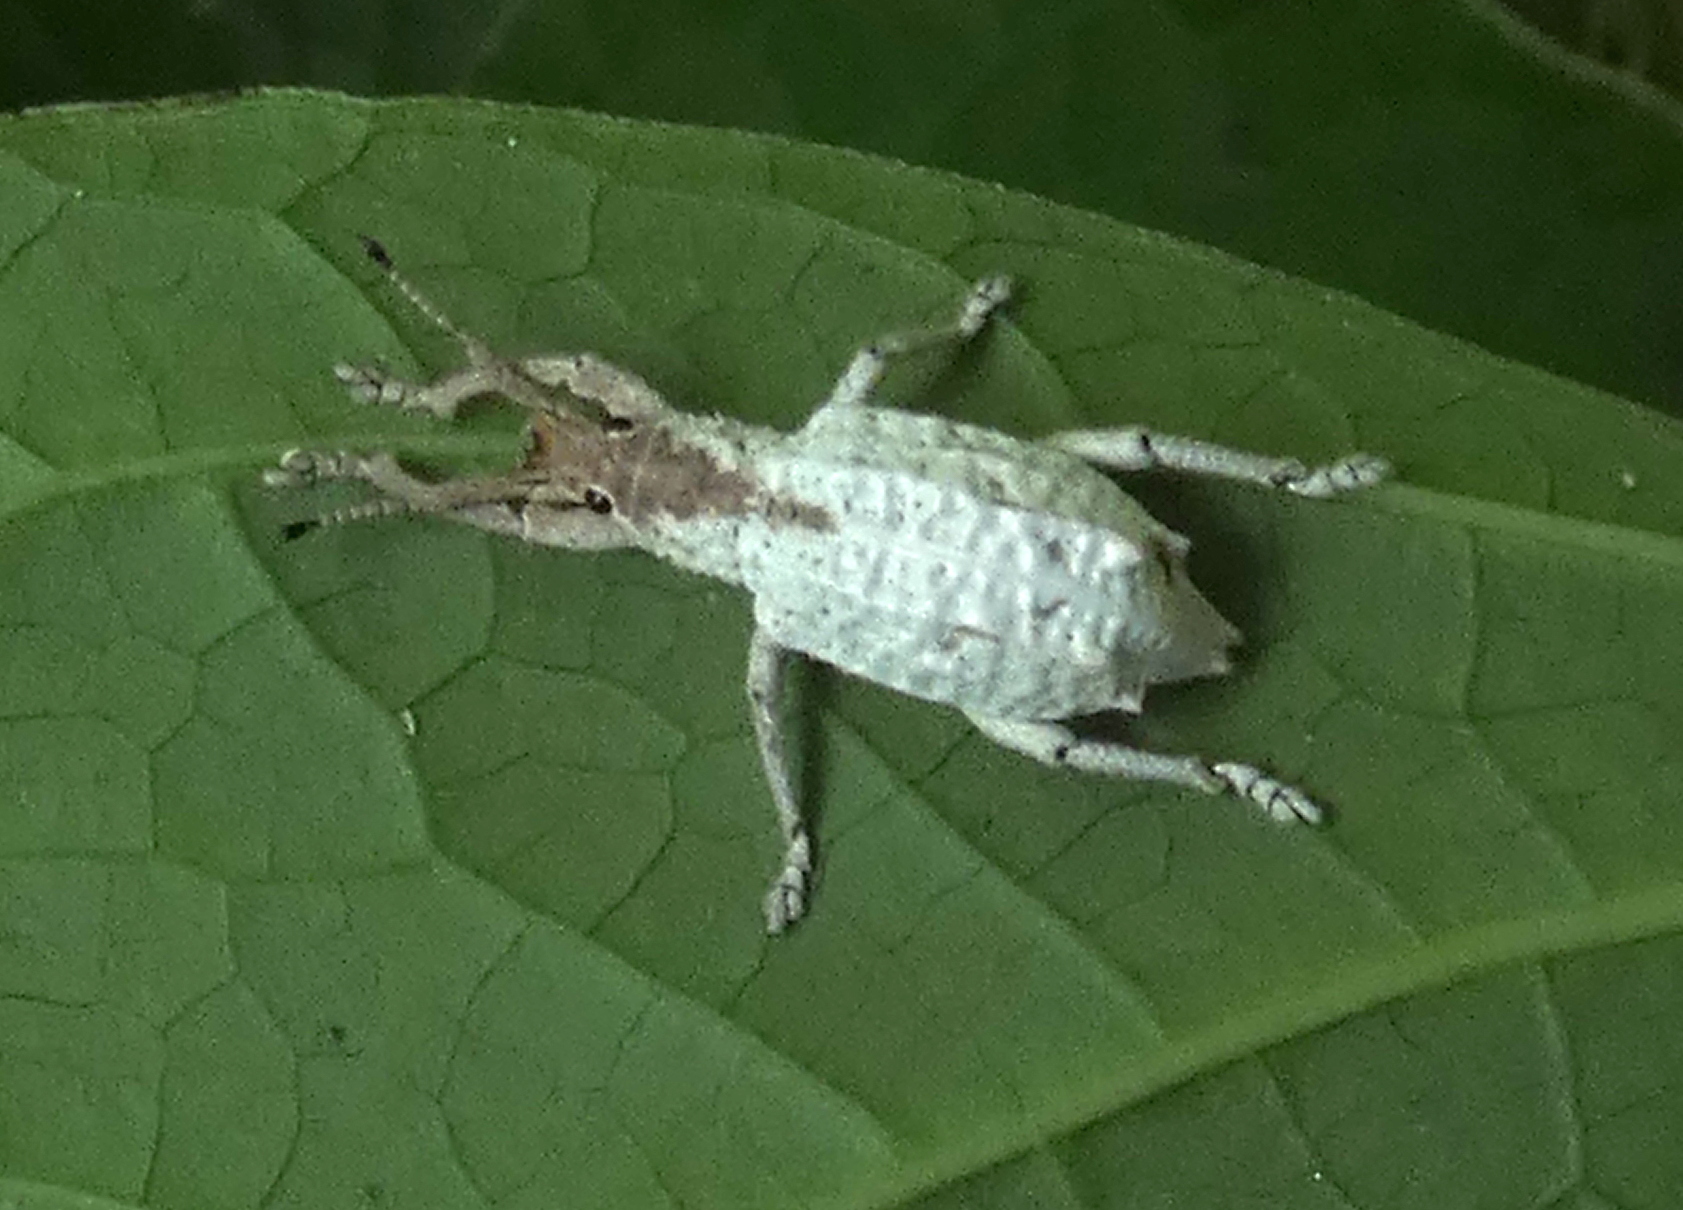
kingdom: Animalia
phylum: Arthropoda
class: Insecta
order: Coleoptera
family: Curculionidae
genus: Compsus
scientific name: Compsus niveus
